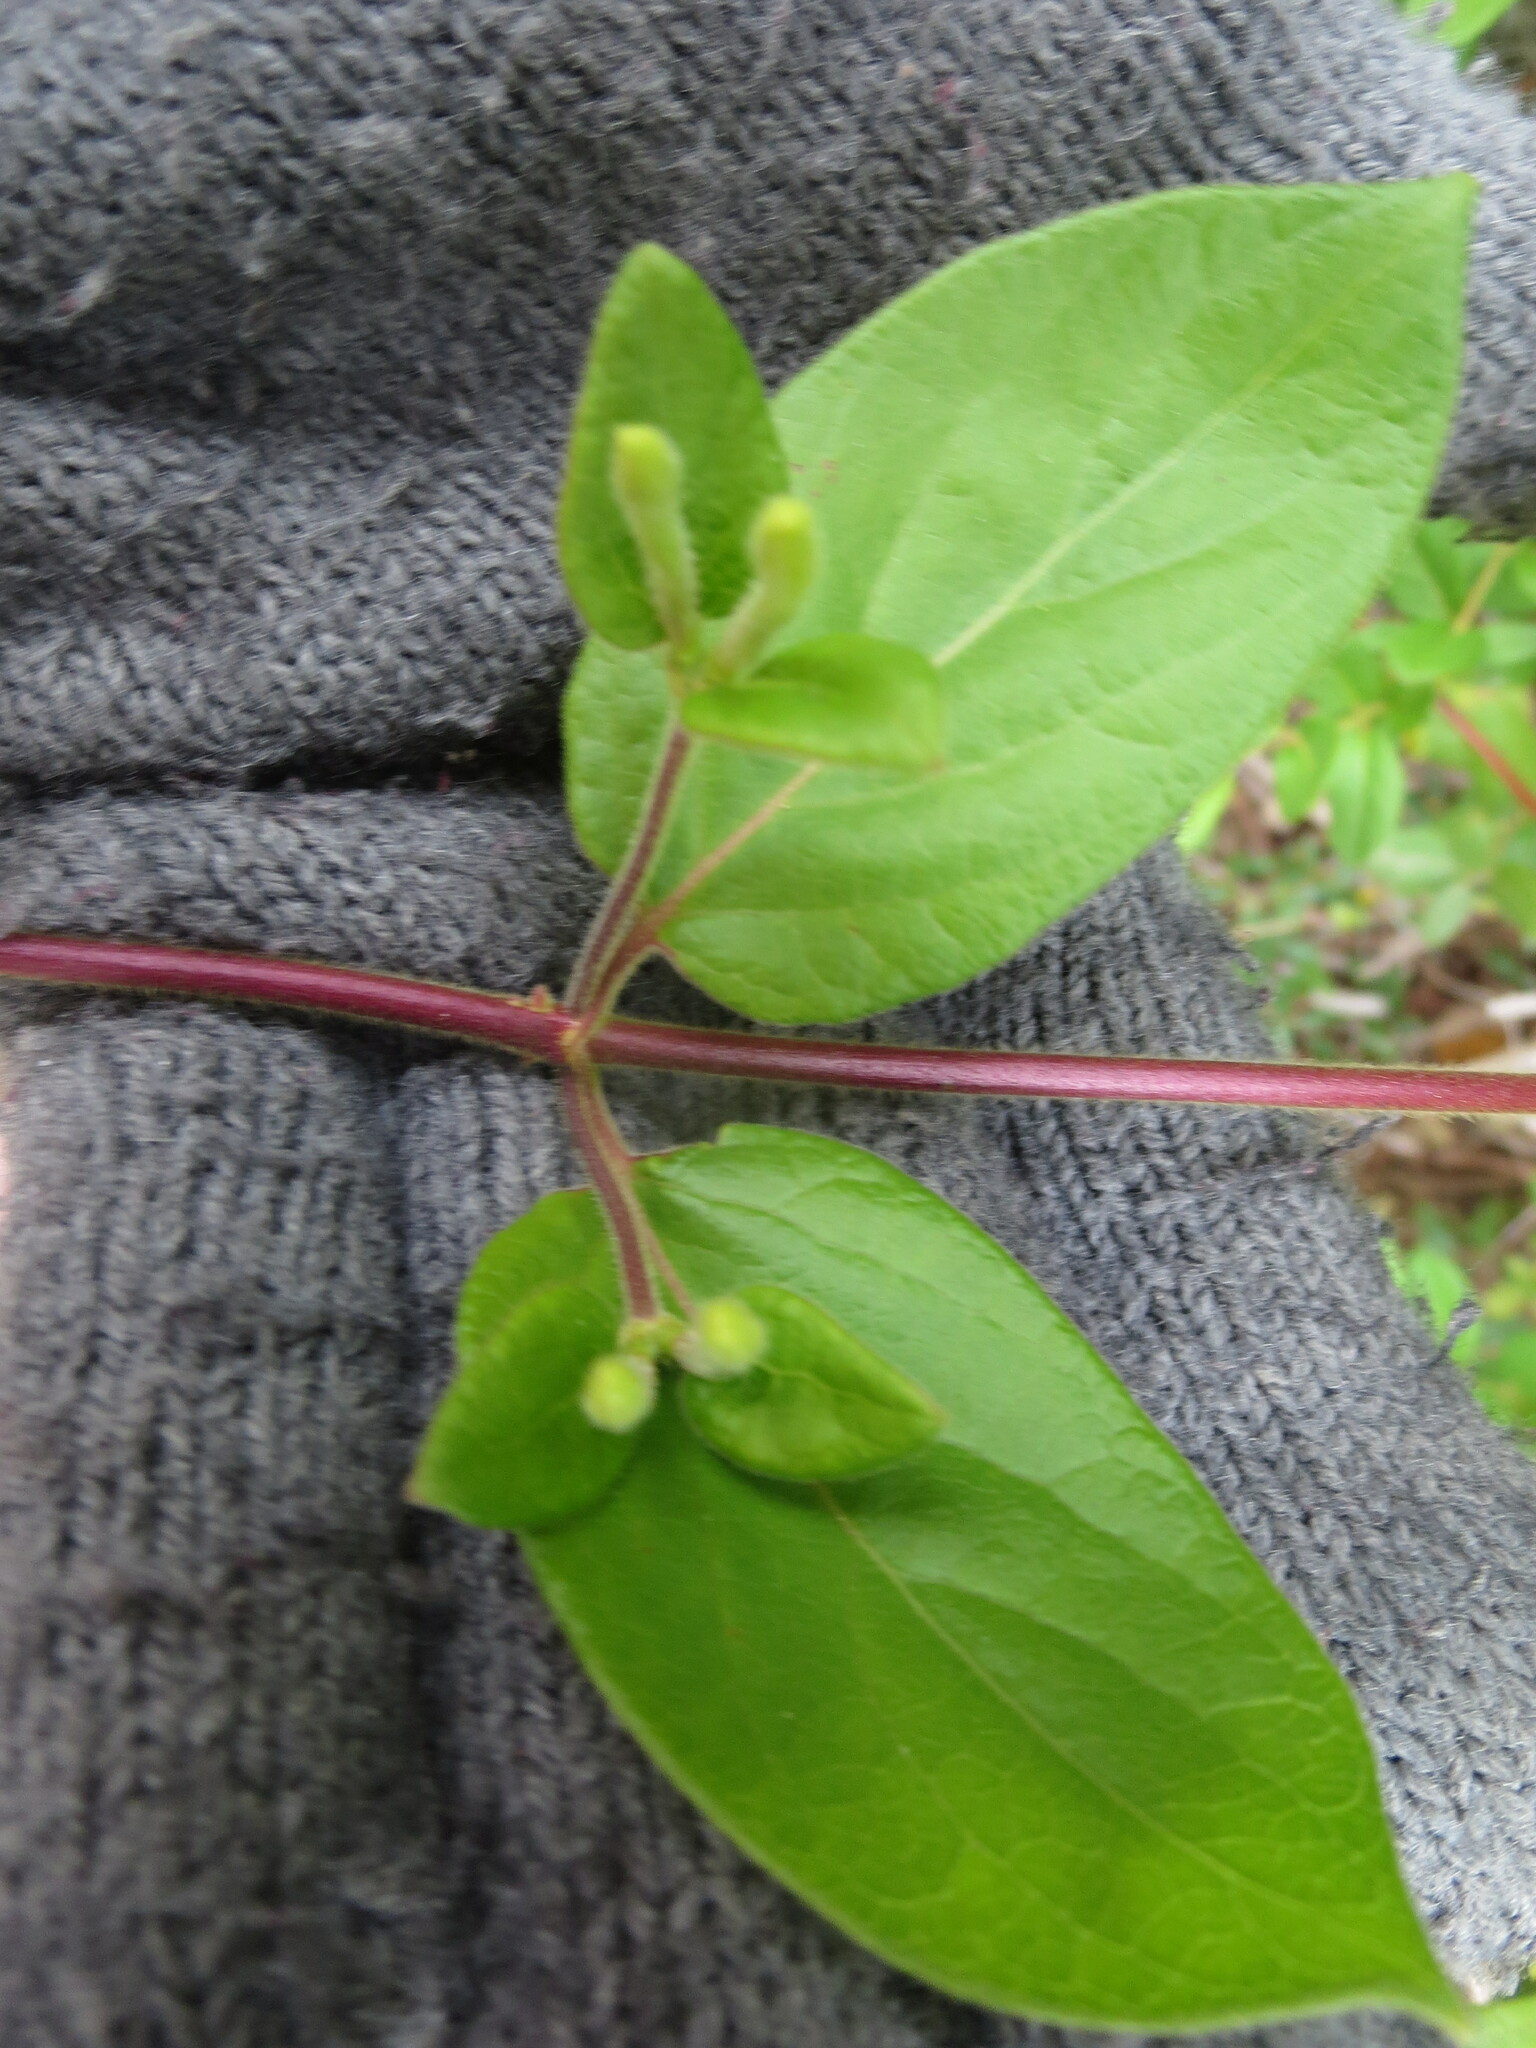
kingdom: Plantae
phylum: Tracheophyta
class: Magnoliopsida
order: Dipsacales
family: Caprifoliaceae
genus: Lonicera
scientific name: Lonicera japonica
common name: Japanese honeysuckle
